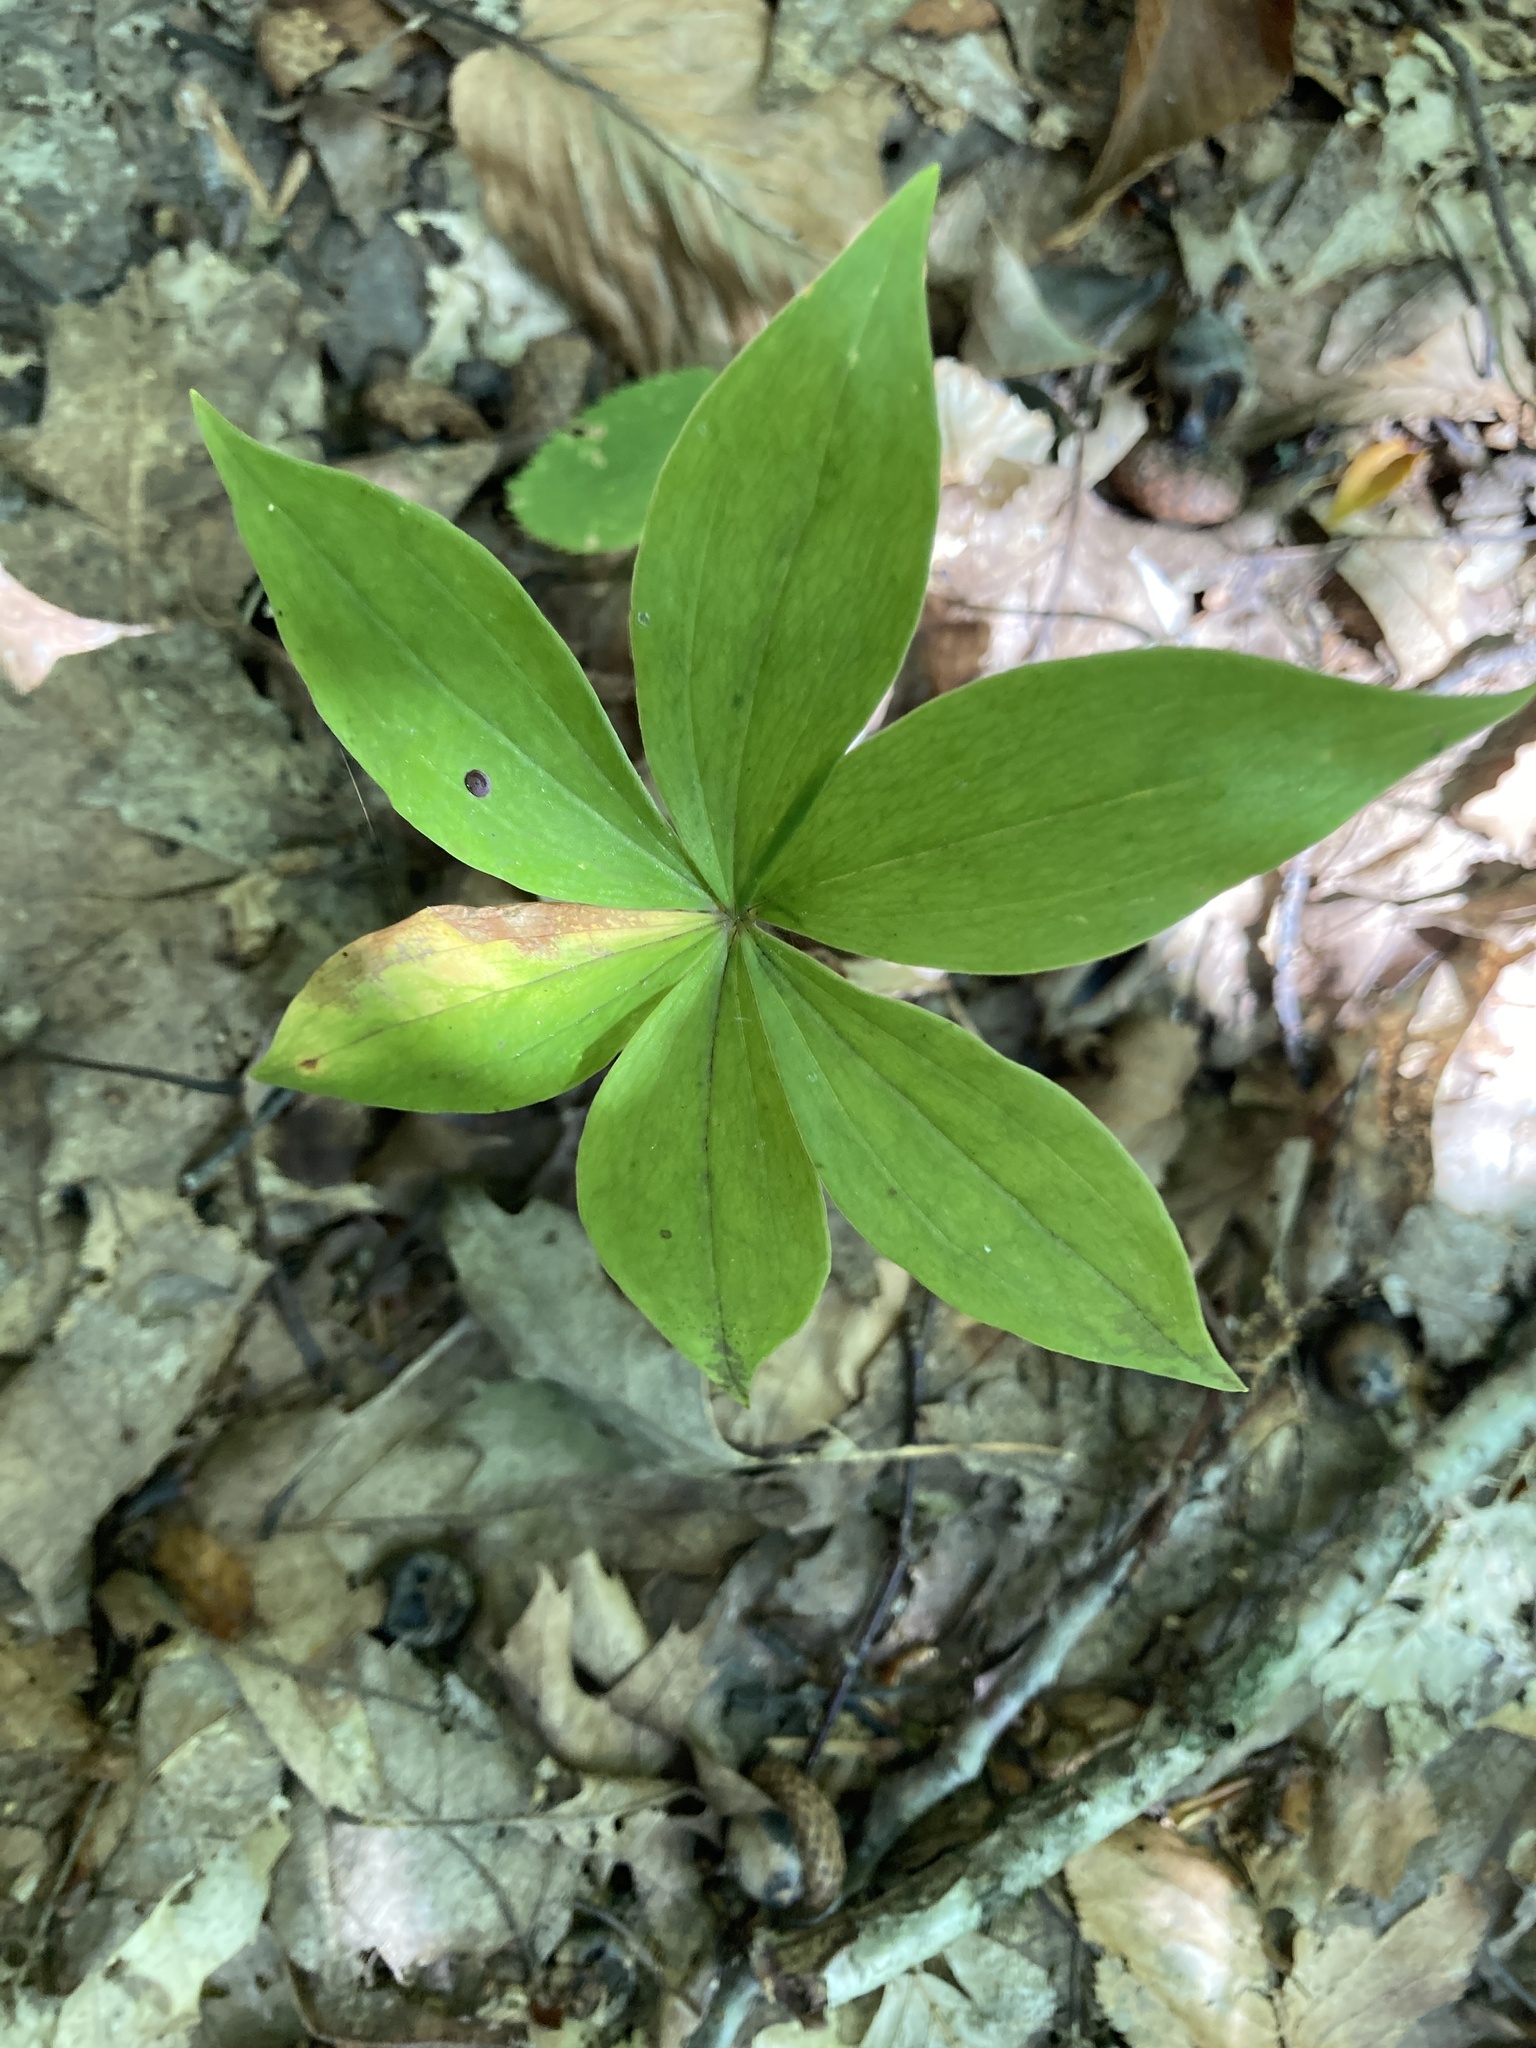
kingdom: Plantae
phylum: Tracheophyta
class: Liliopsida
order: Liliales
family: Liliaceae
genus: Medeola
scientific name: Medeola virginiana
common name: Indian cucumber-root
